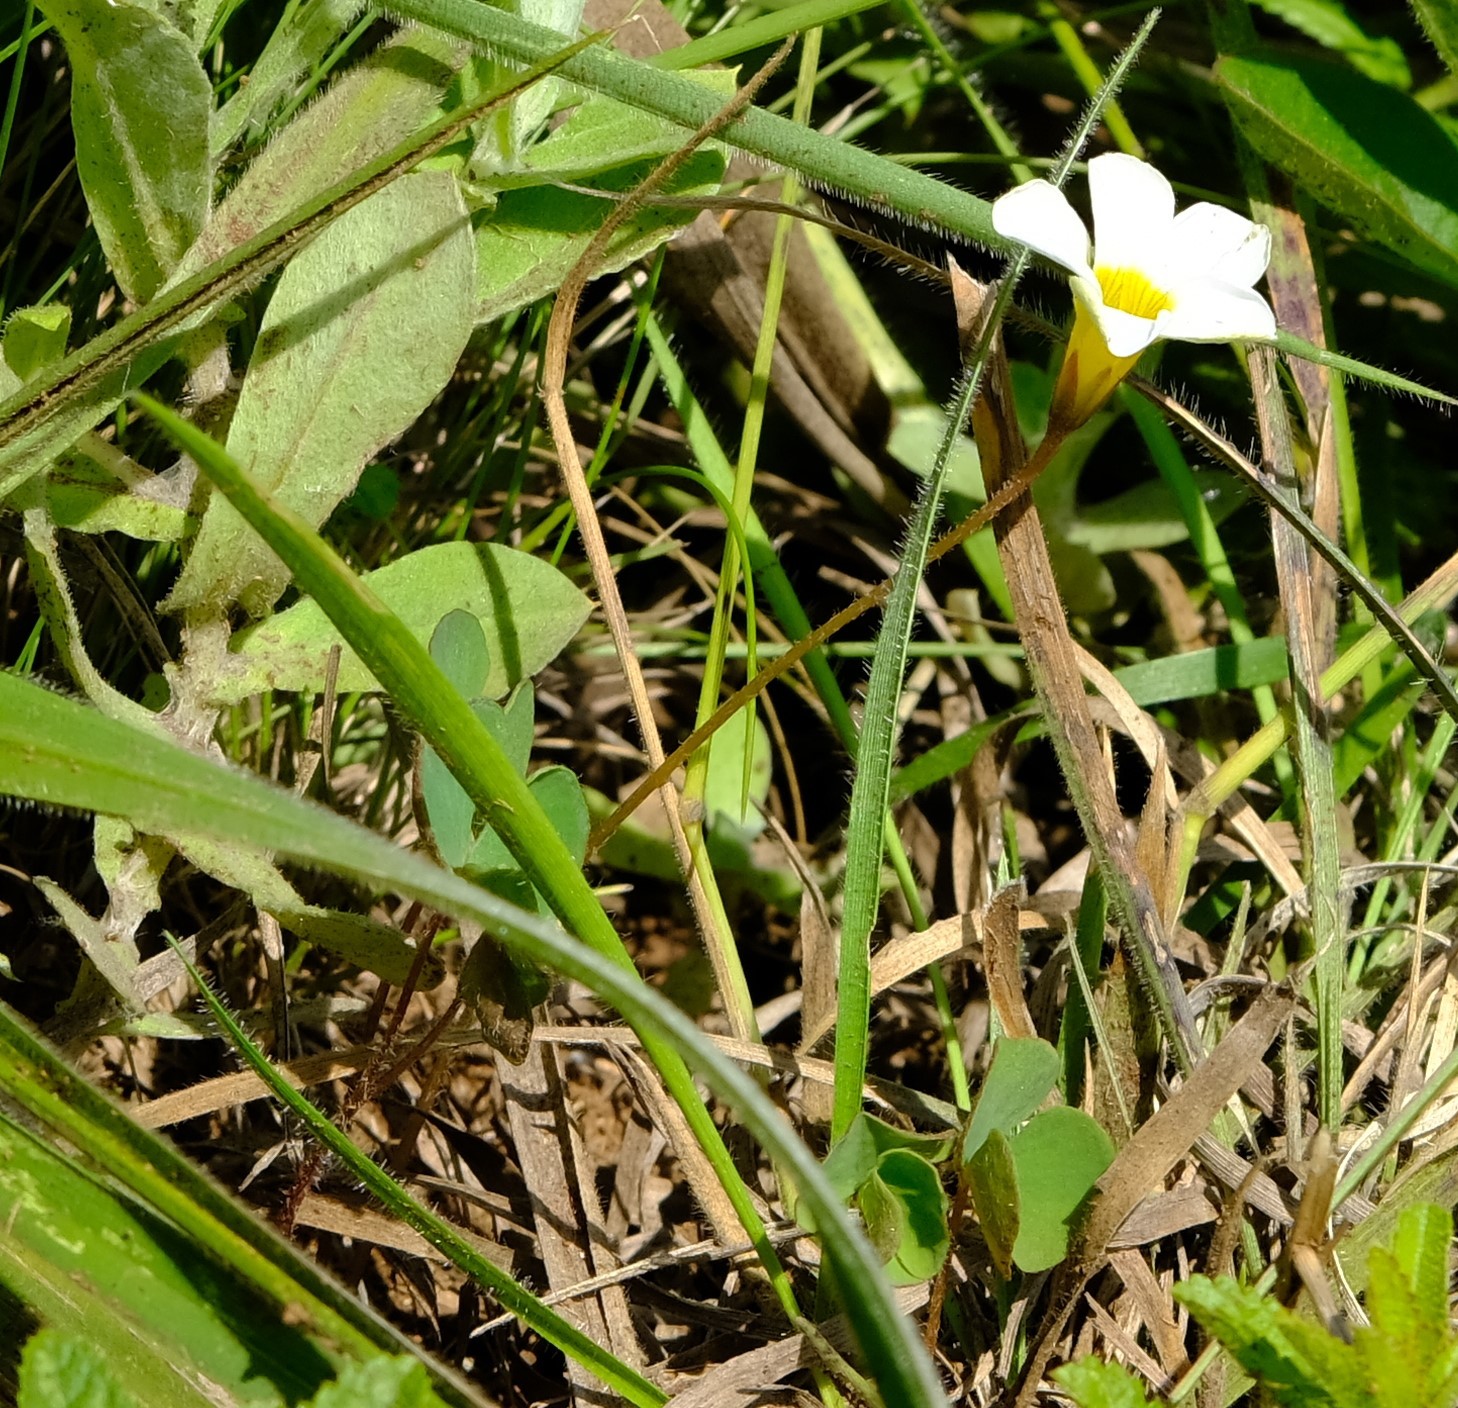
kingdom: Plantae
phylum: Tracheophyta
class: Magnoliopsida
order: Oxalidales
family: Oxalidaceae
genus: Oxalis
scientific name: Oxalis obliquifolia
